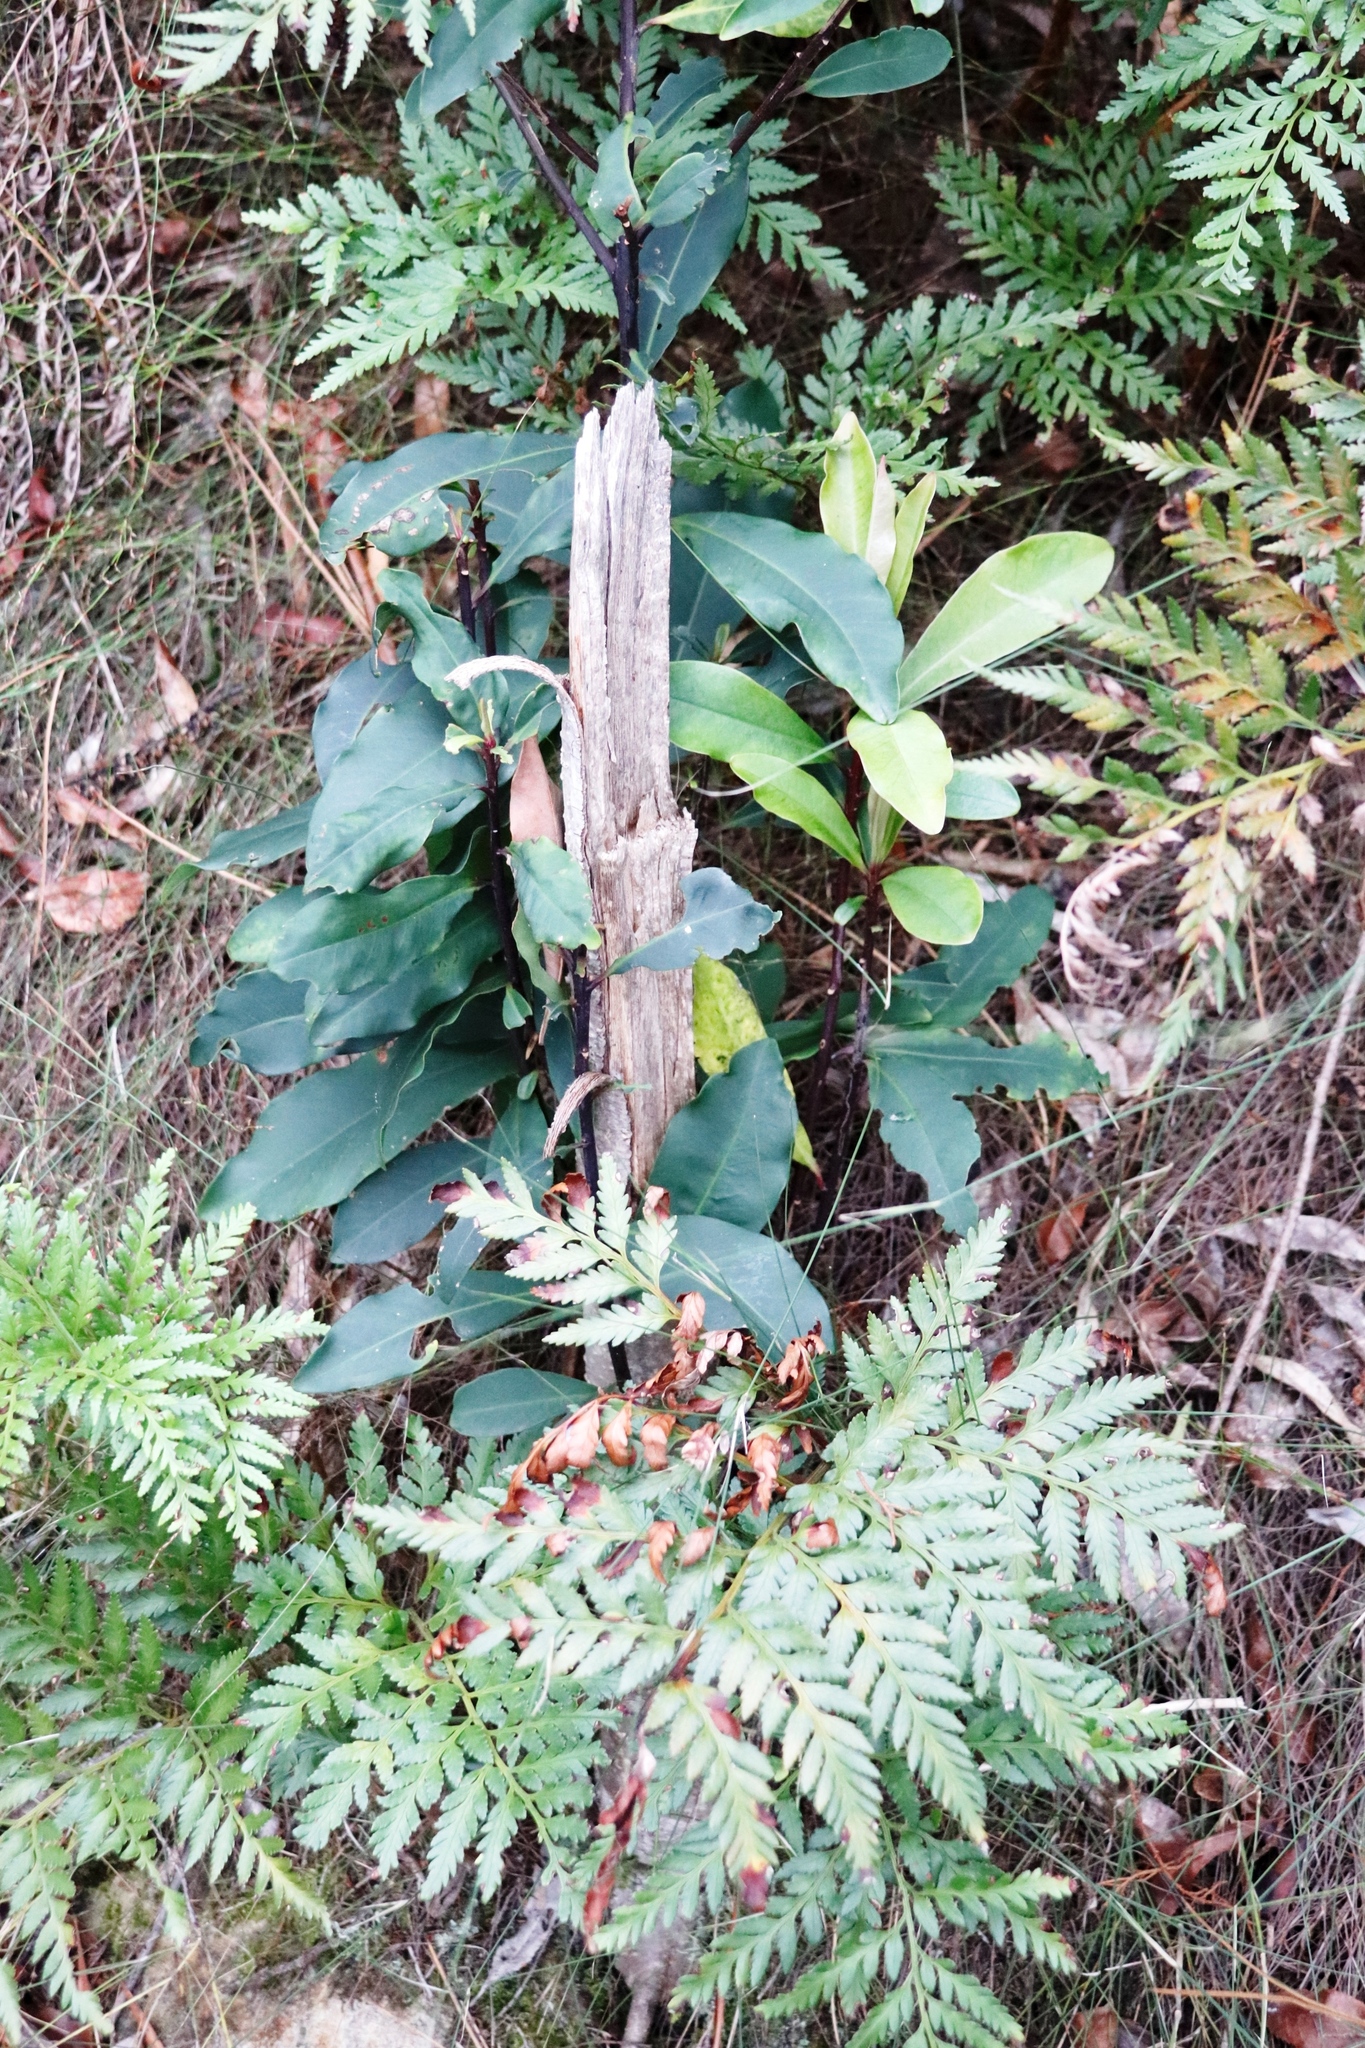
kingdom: Plantae
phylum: Tracheophyta
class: Magnoliopsida
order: Ericales
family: Primulaceae
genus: Myrsine
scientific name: Myrsine melanophloeos
